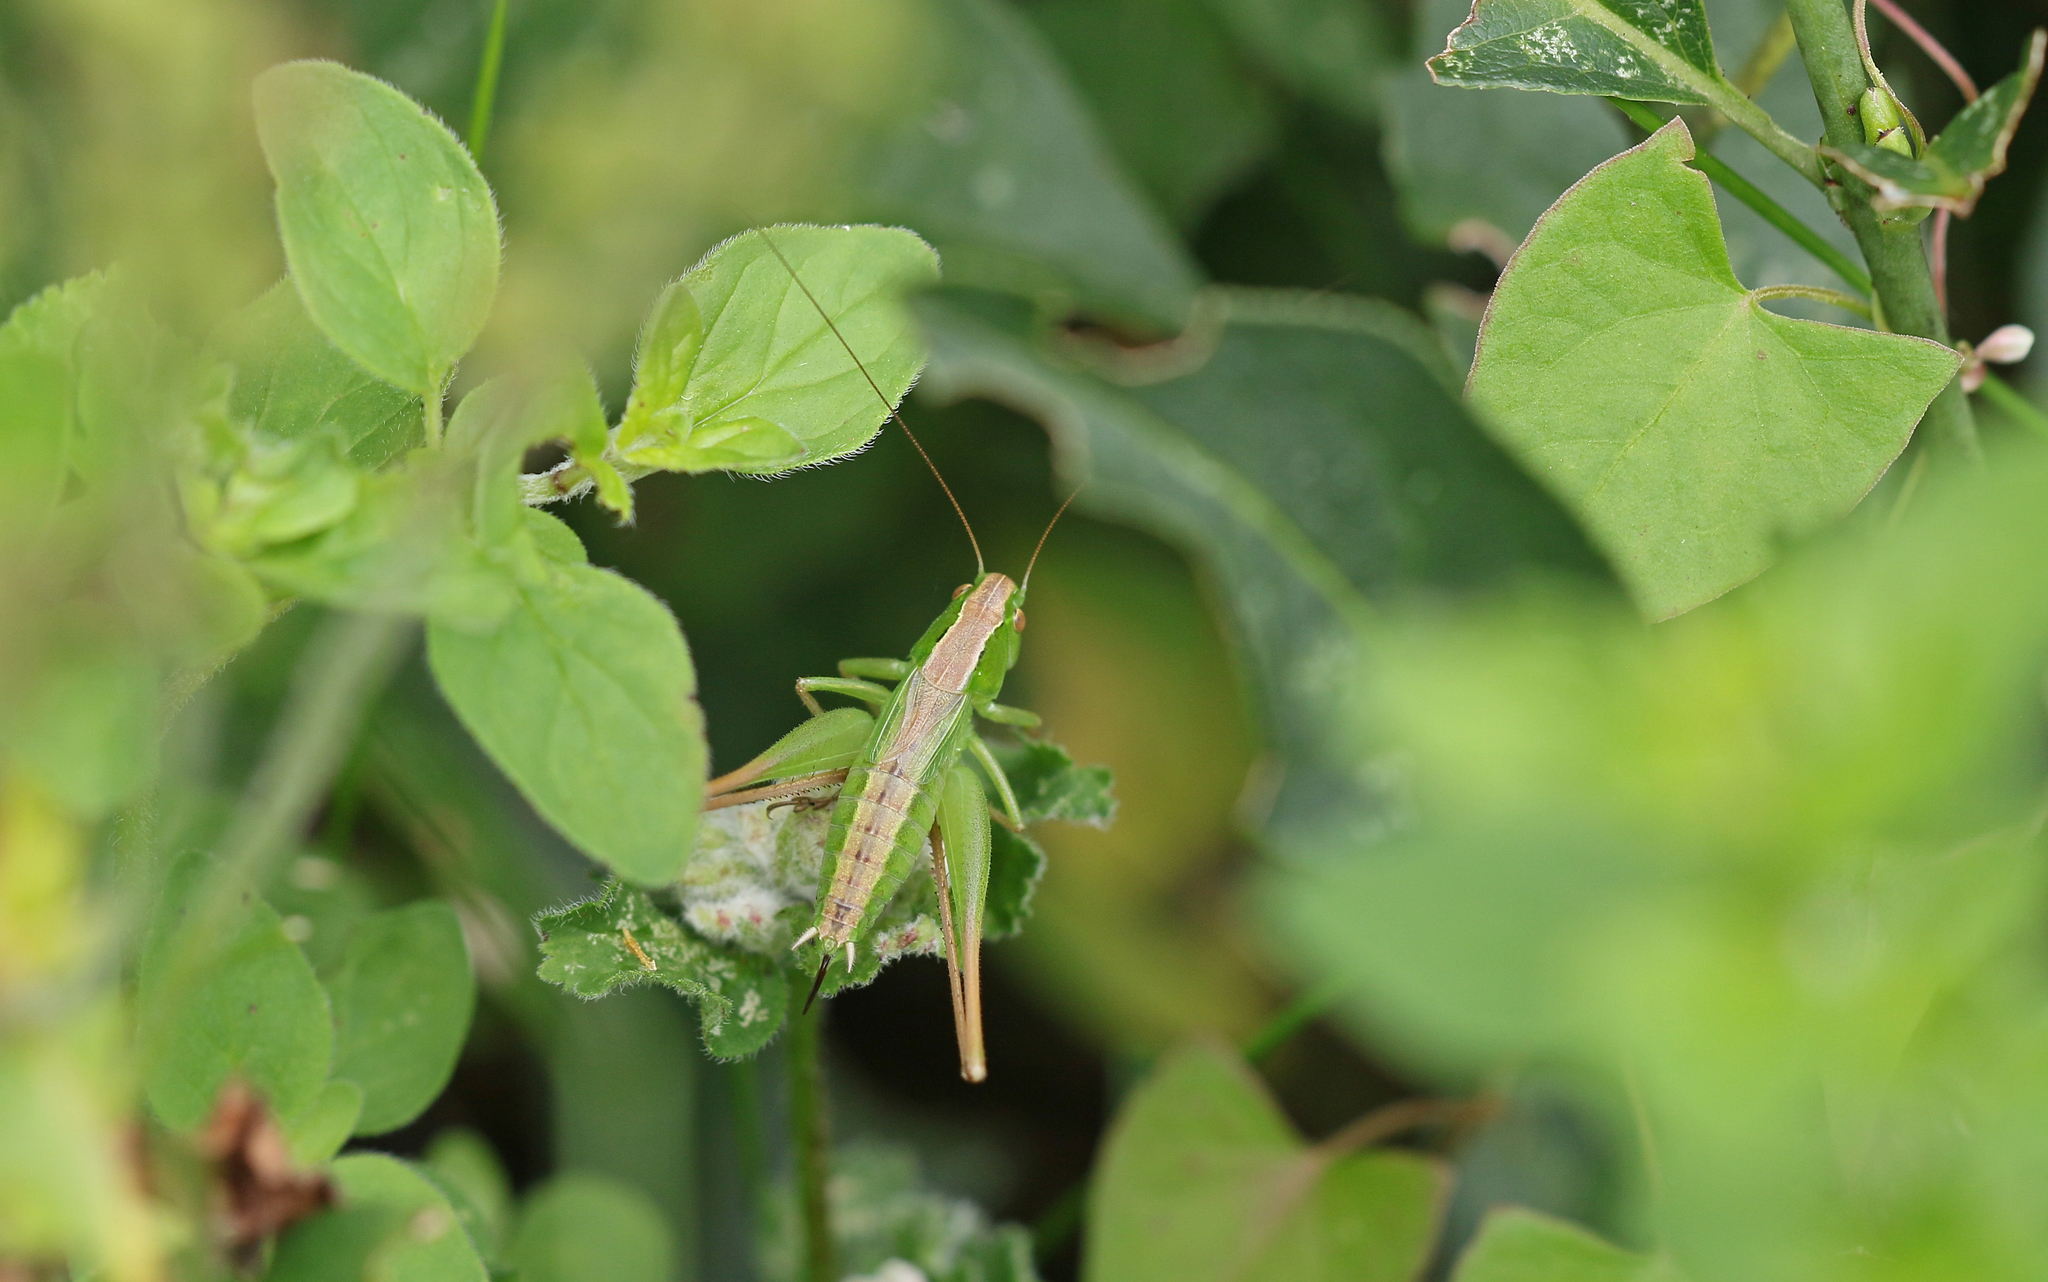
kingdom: Animalia
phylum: Arthropoda
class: Insecta
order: Orthoptera
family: Tettigoniidae
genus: Bicolorana
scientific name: Bicolorana bicolor
